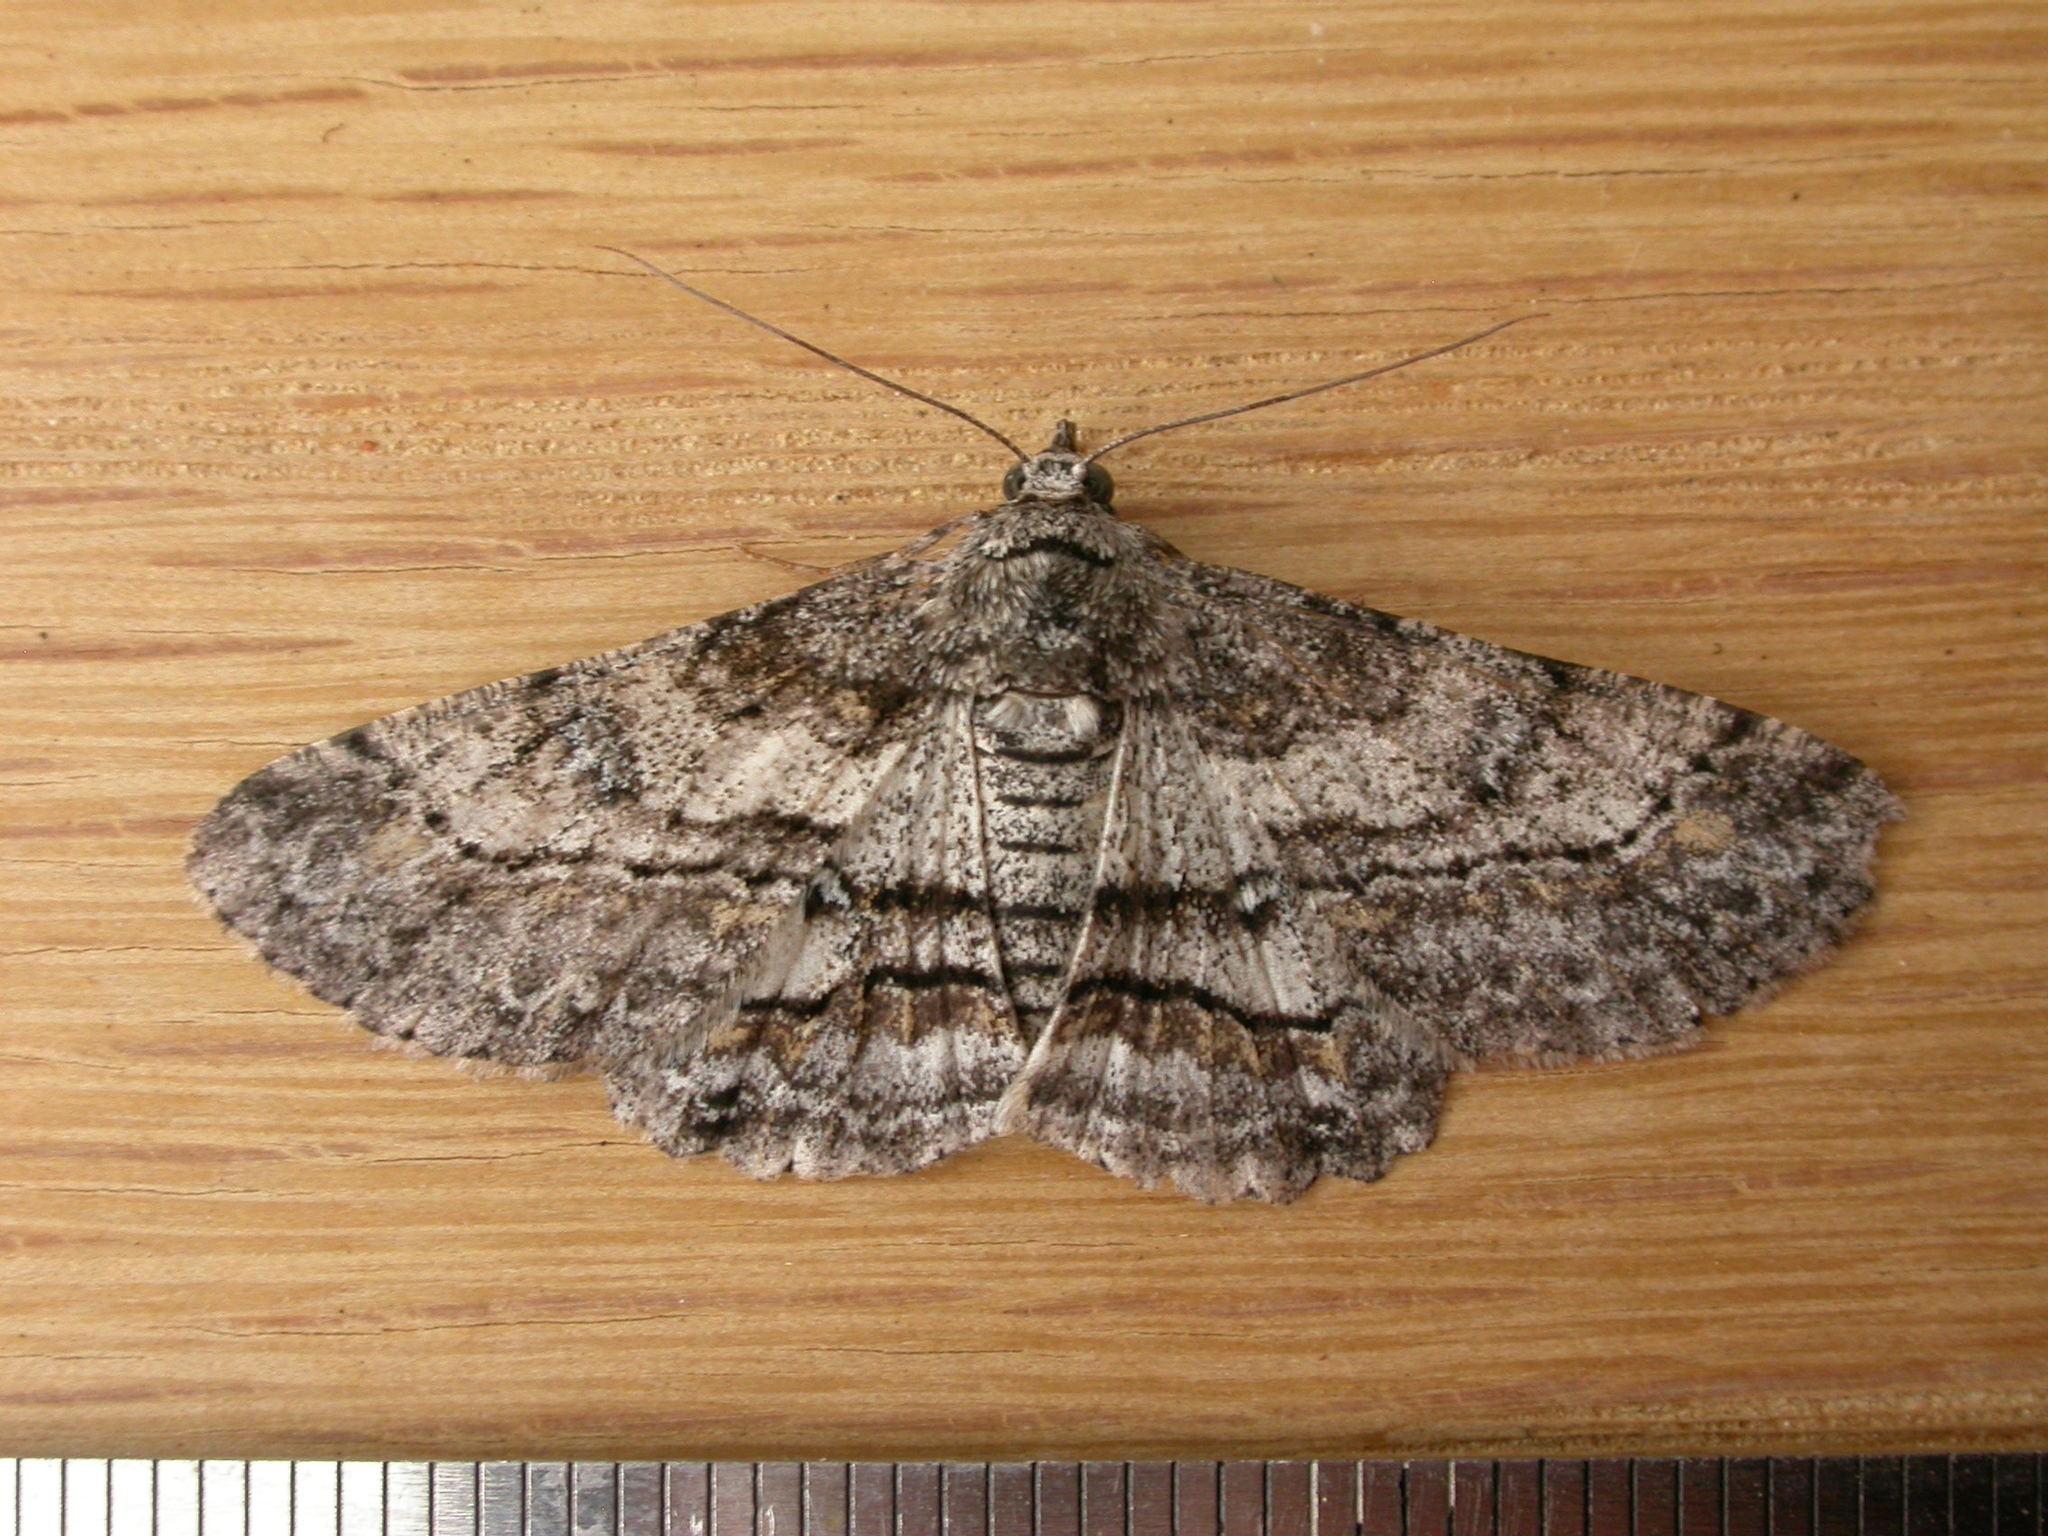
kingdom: Animalia
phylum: Arthropoda
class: Insecta
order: Lepidoptera
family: Geometridae
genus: Cleora
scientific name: Cleora injectaria
